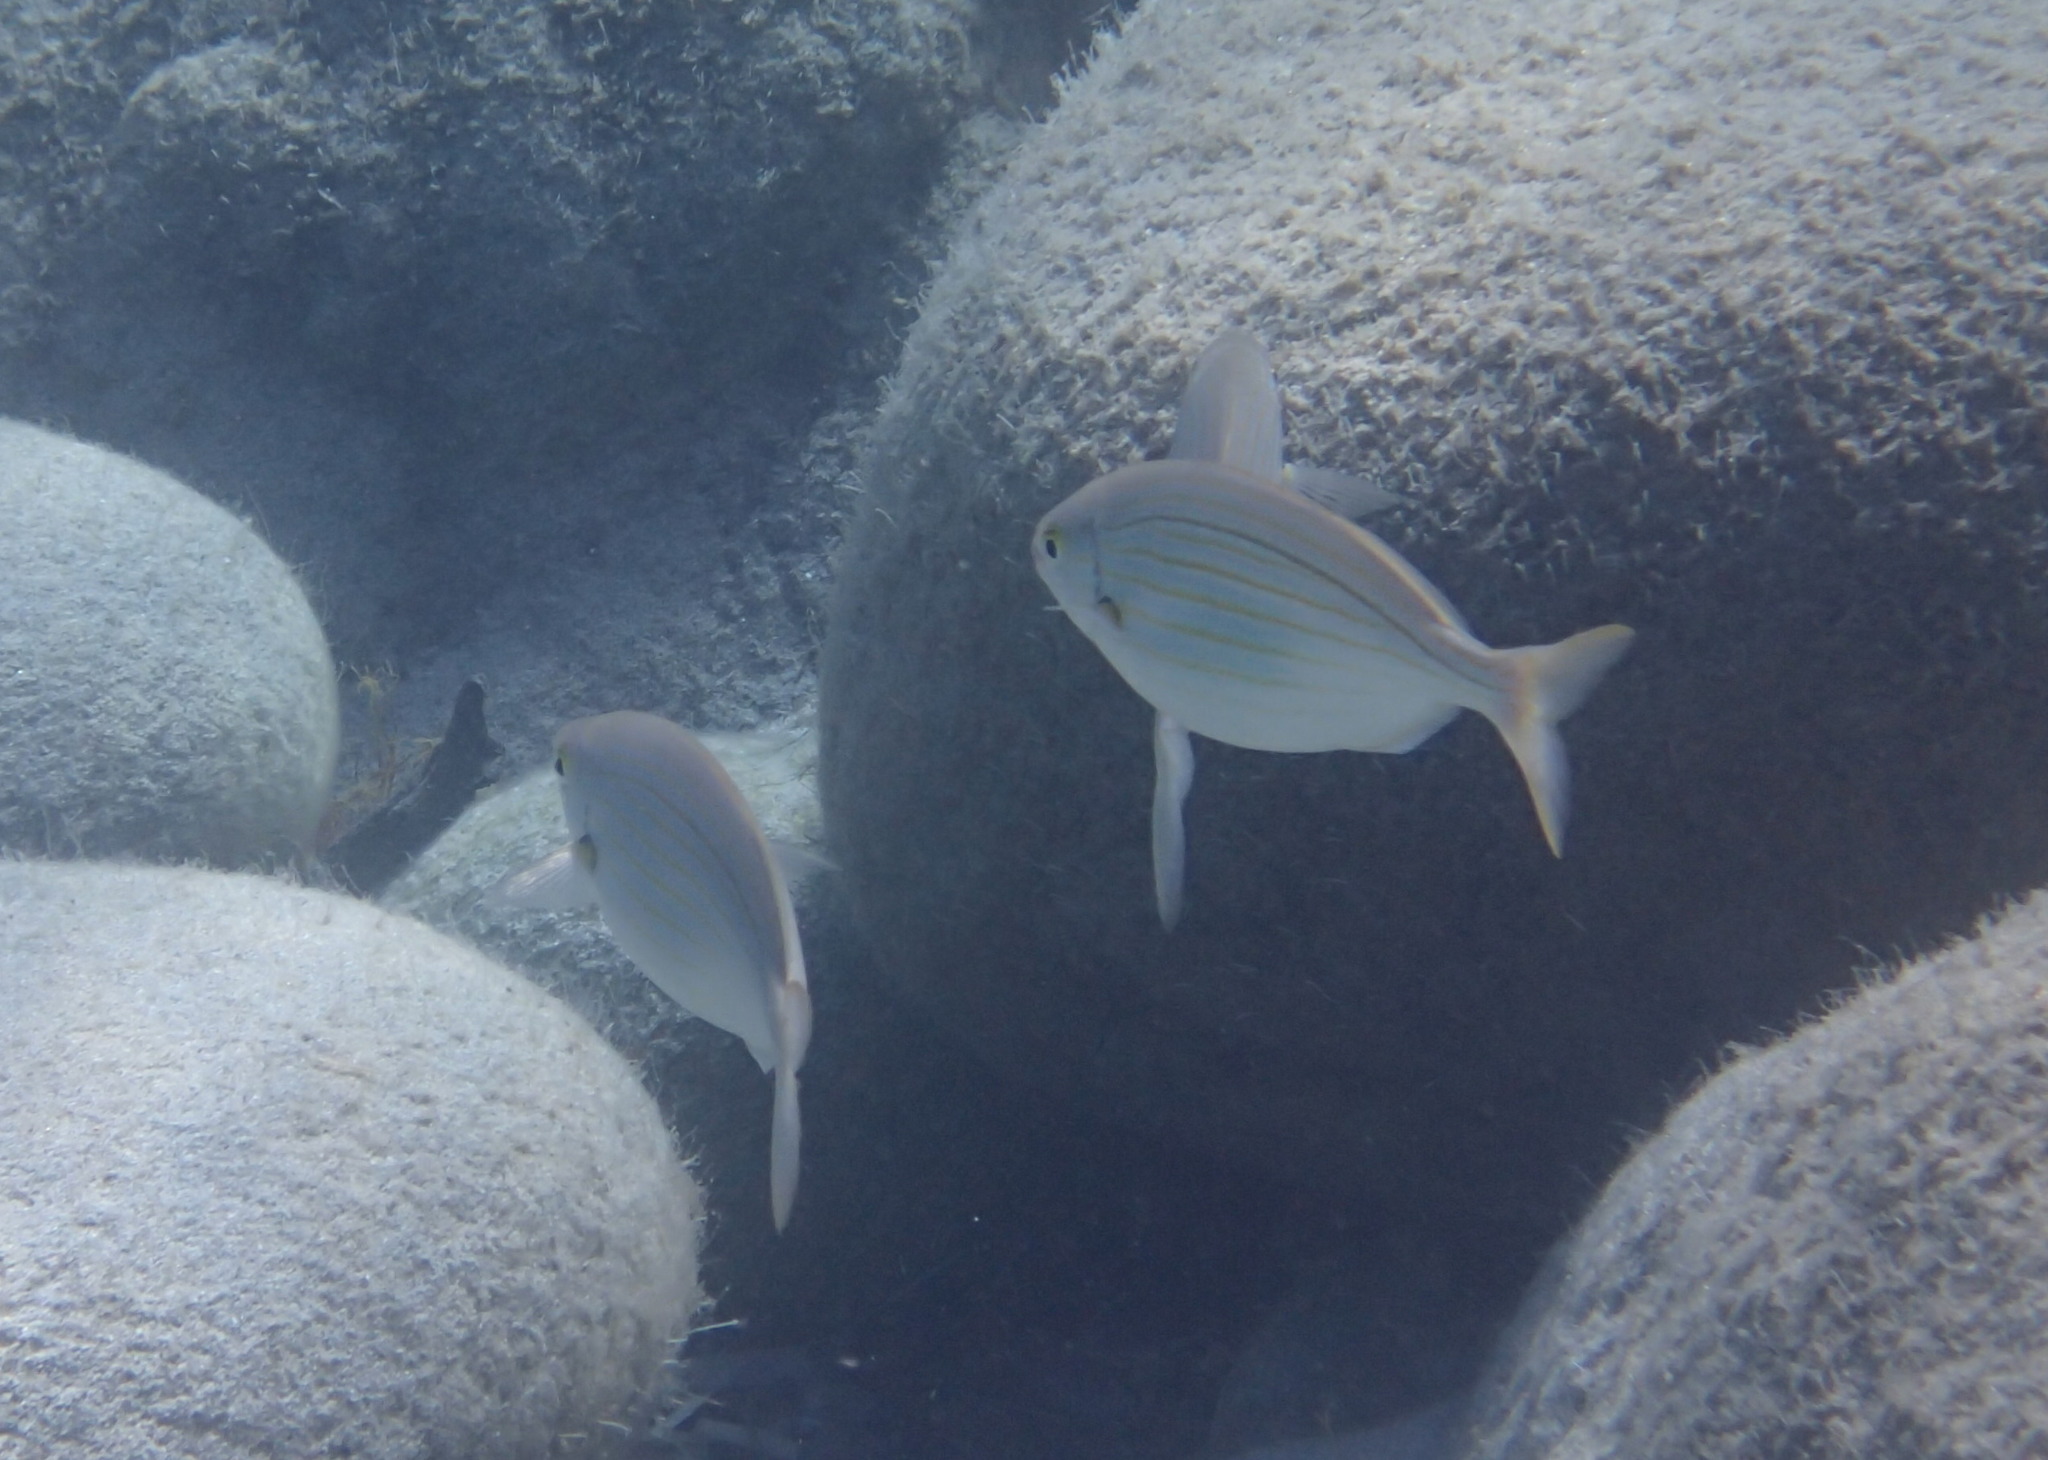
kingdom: Animalia
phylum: Chordata
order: Perciformes
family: Sparidae
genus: Sarpa
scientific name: Sarpa salpa
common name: Salema
